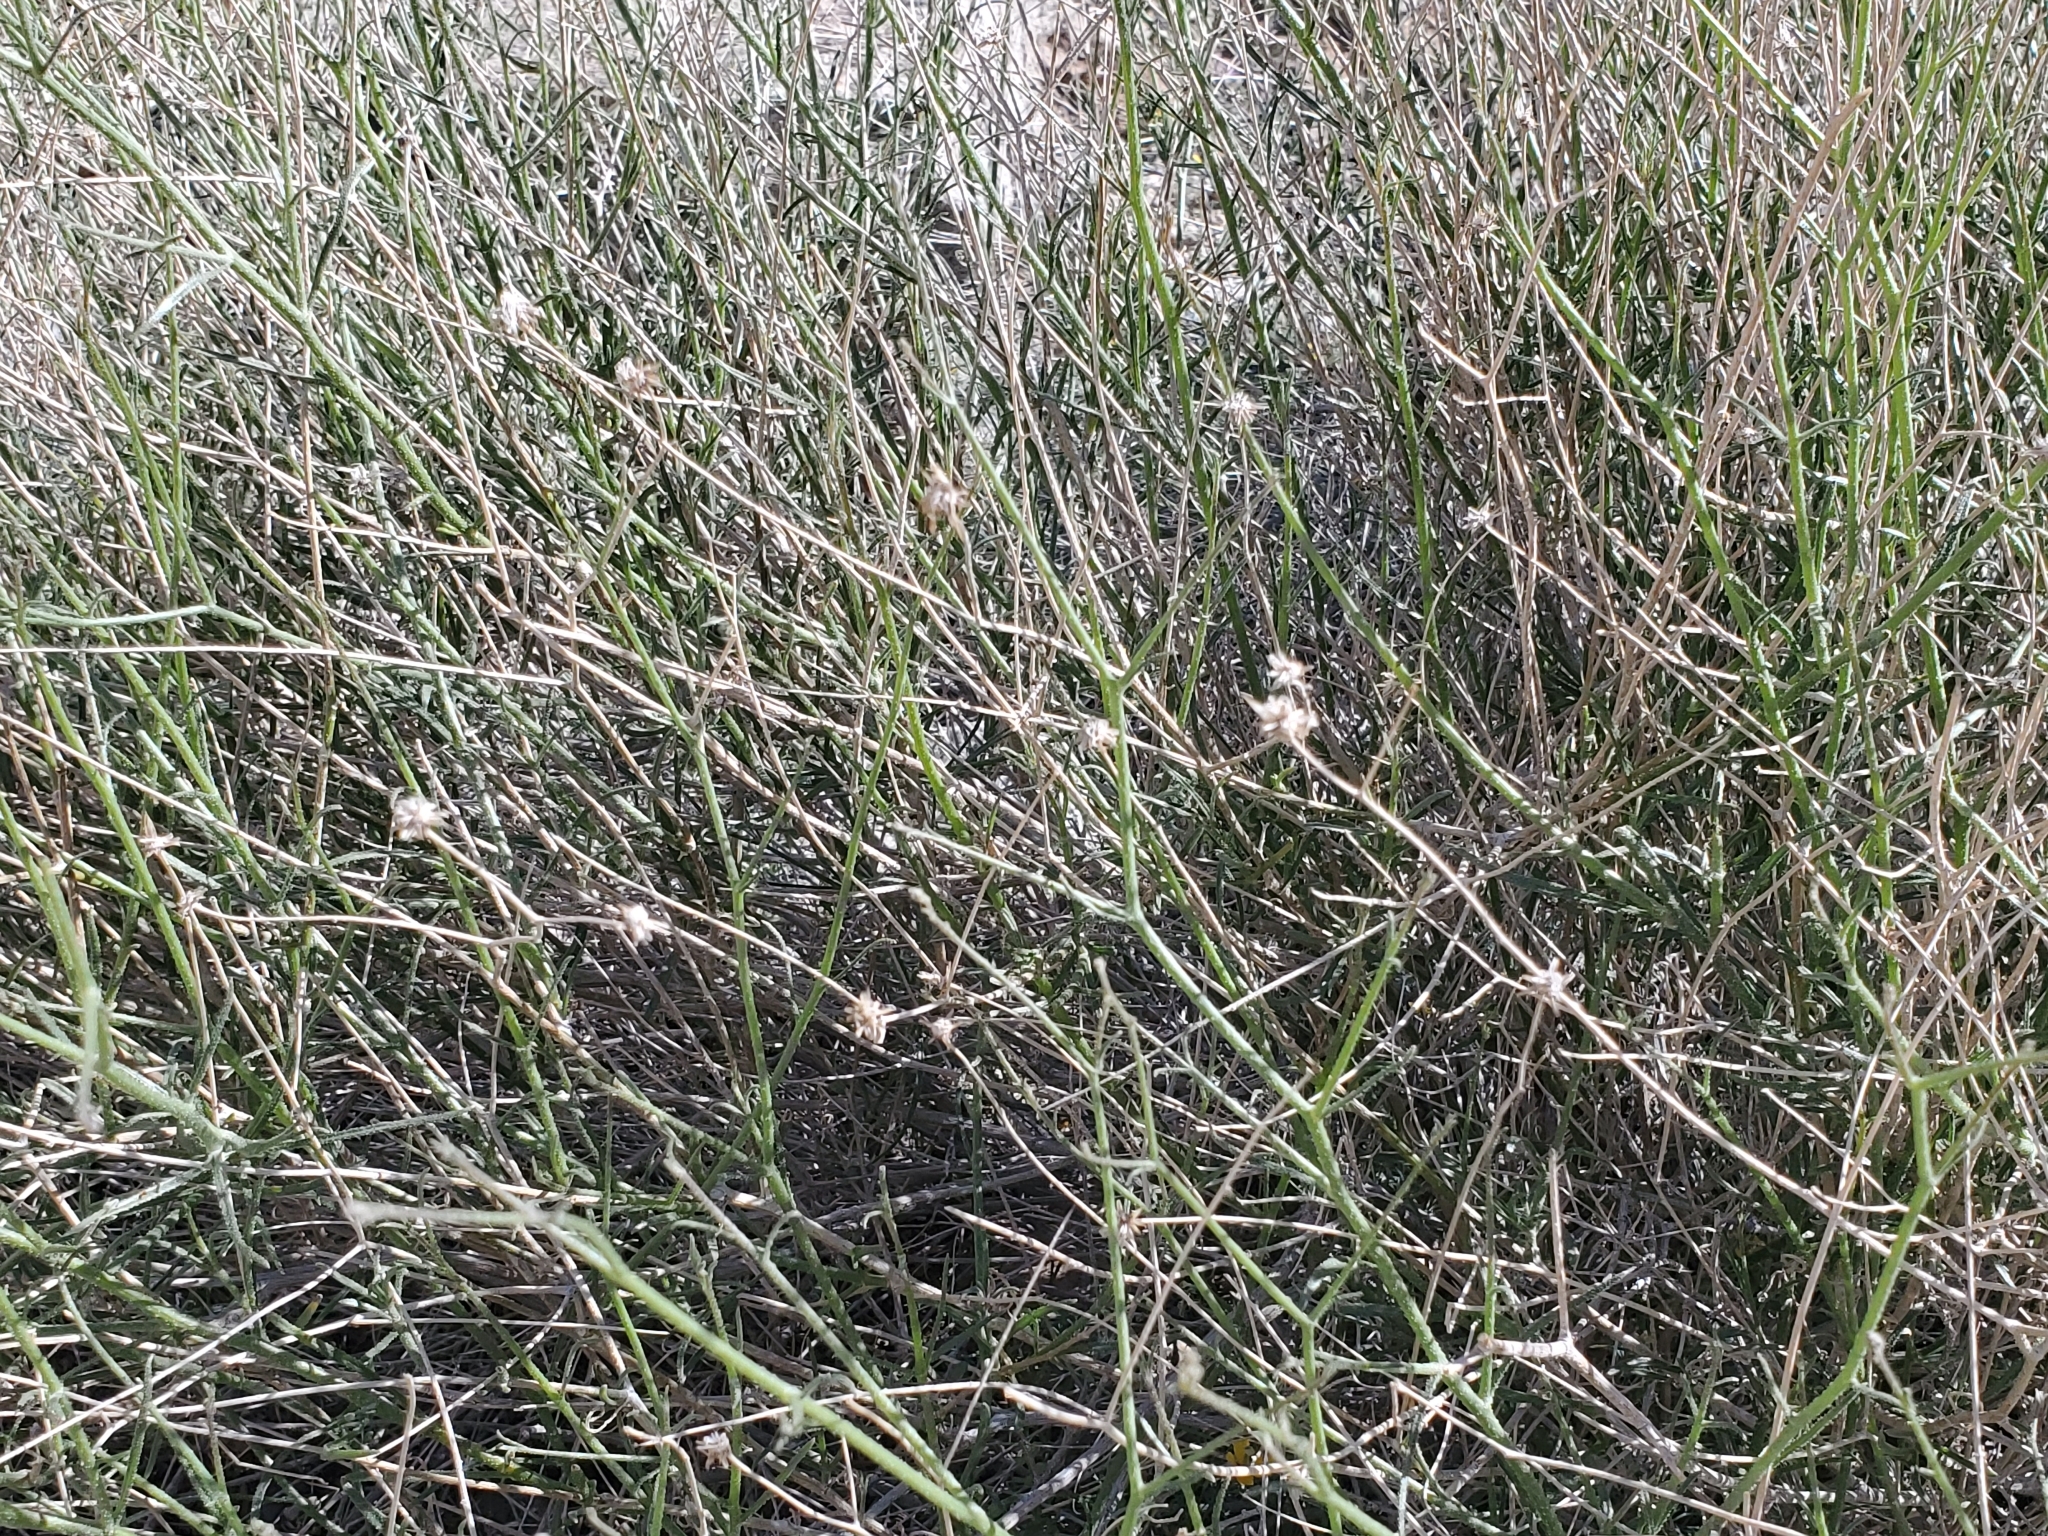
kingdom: Plantae
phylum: Tracheophyta
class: Magnoliopsida
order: Asterales
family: Asteraceae
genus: Bebbia
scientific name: Bebbia juncea
